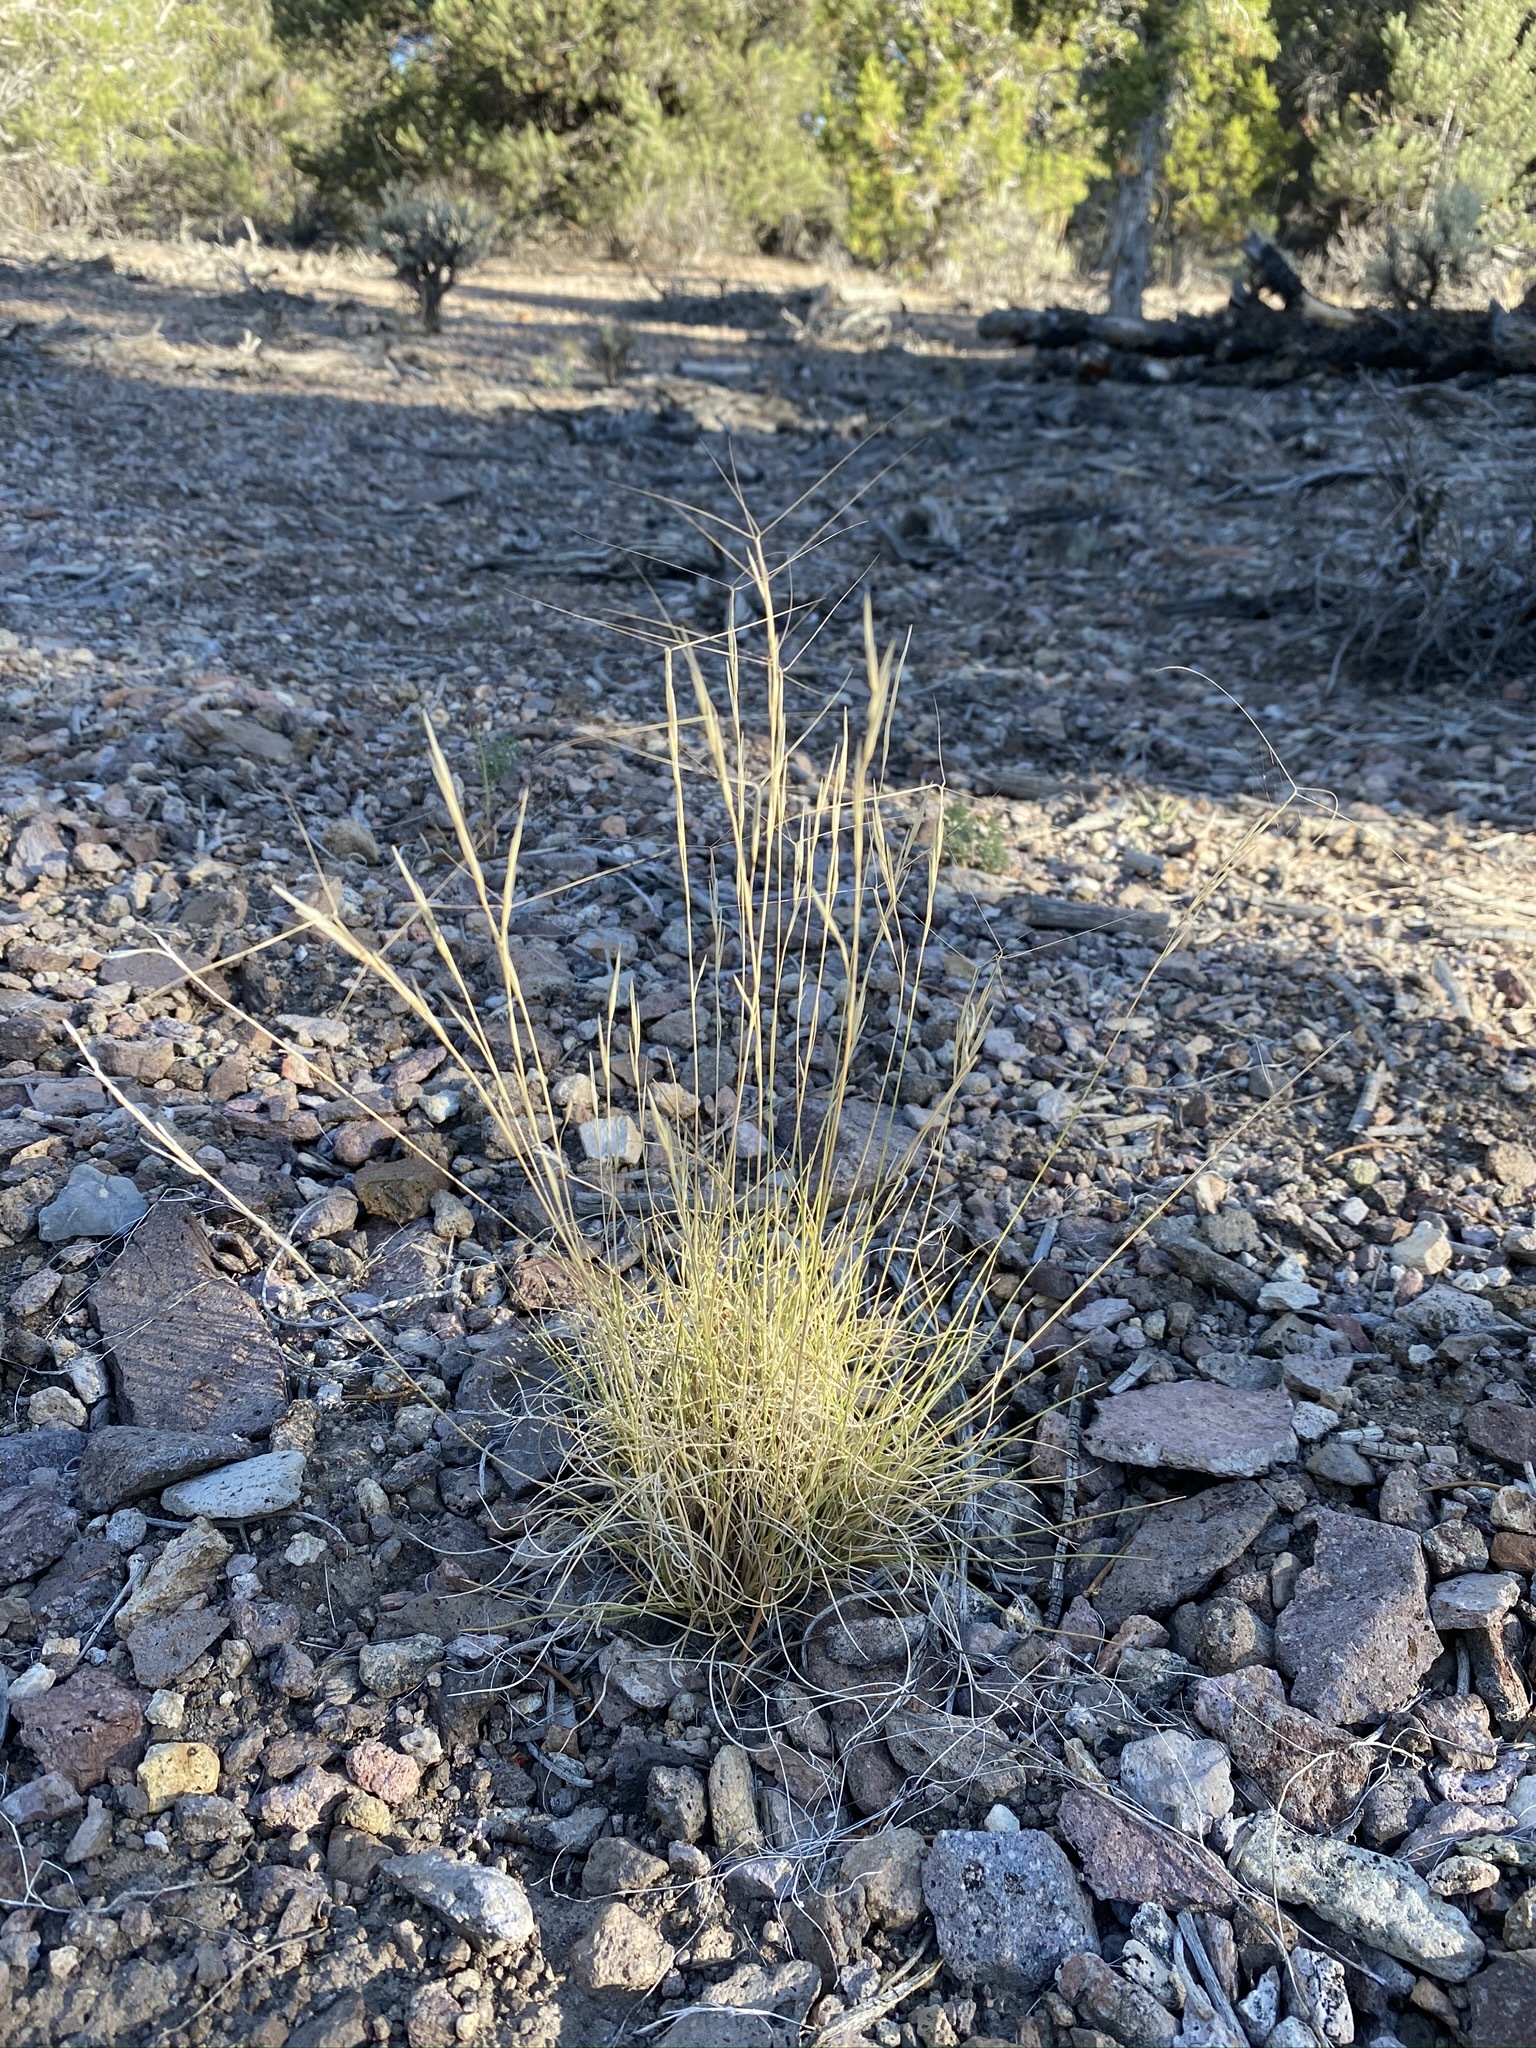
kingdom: Plantae
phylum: Tracheophyta
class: Liliopsida
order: Poales
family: Poaceae
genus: Aristida
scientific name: Aristida purpurea
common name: Purple threeawn
